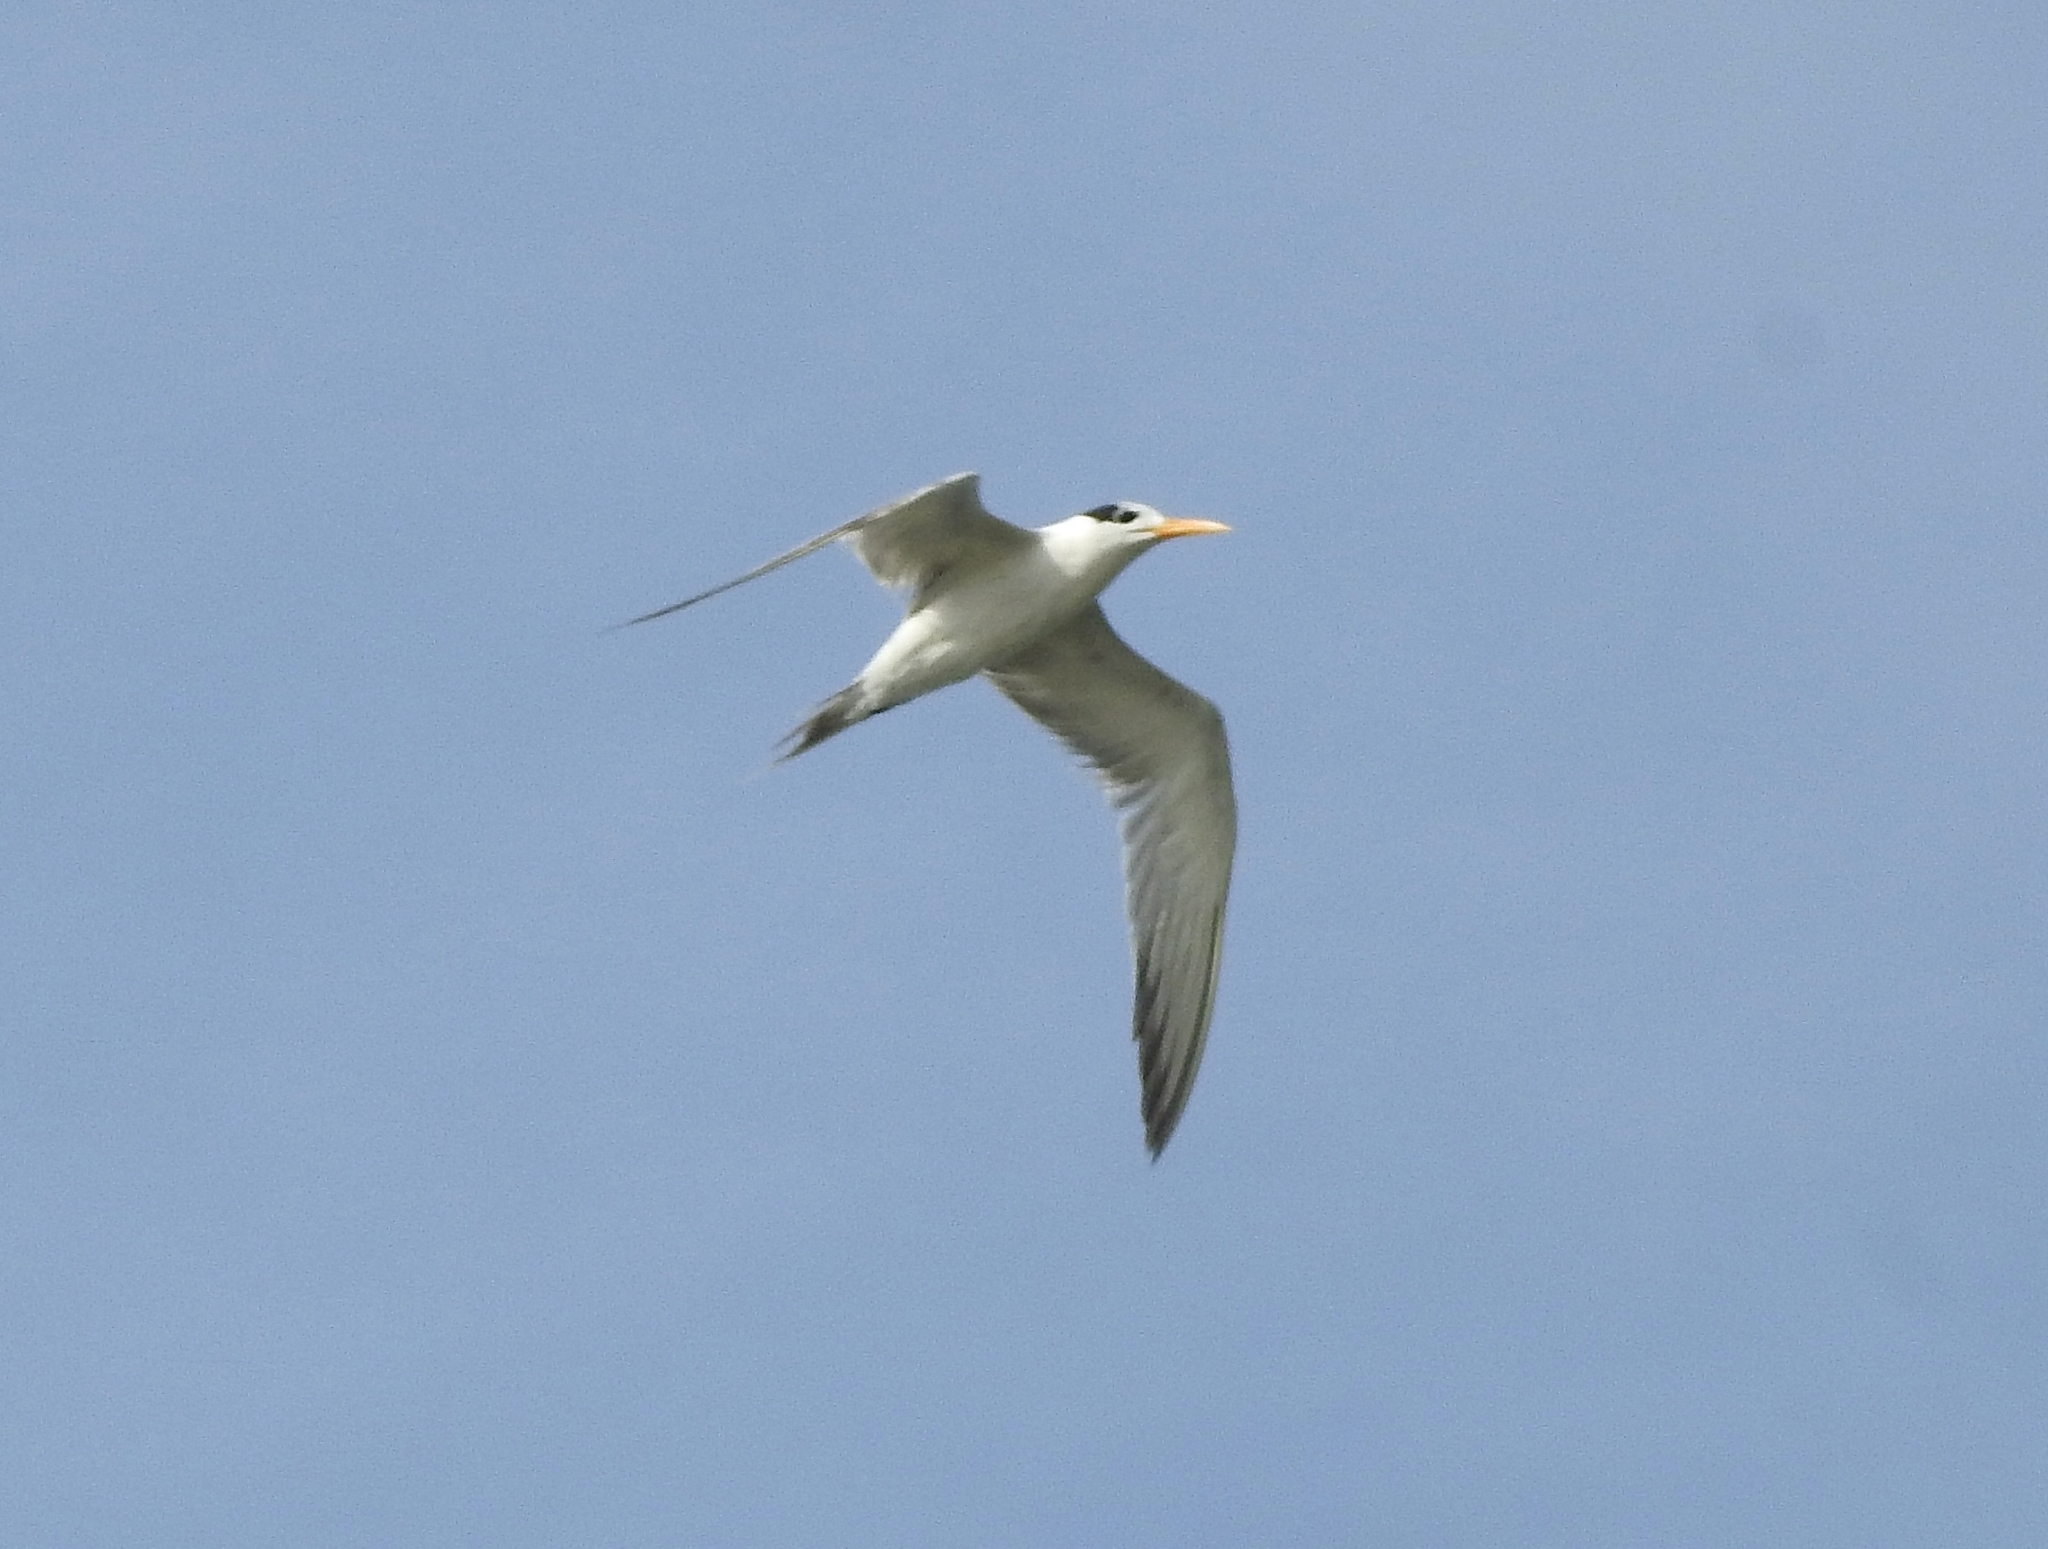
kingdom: Animalia
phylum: Chordata
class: Aves
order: Charadriiformes
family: Laridae
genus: Thalasseus
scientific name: Thalasseus bengalensis
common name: Lesser crested tern
